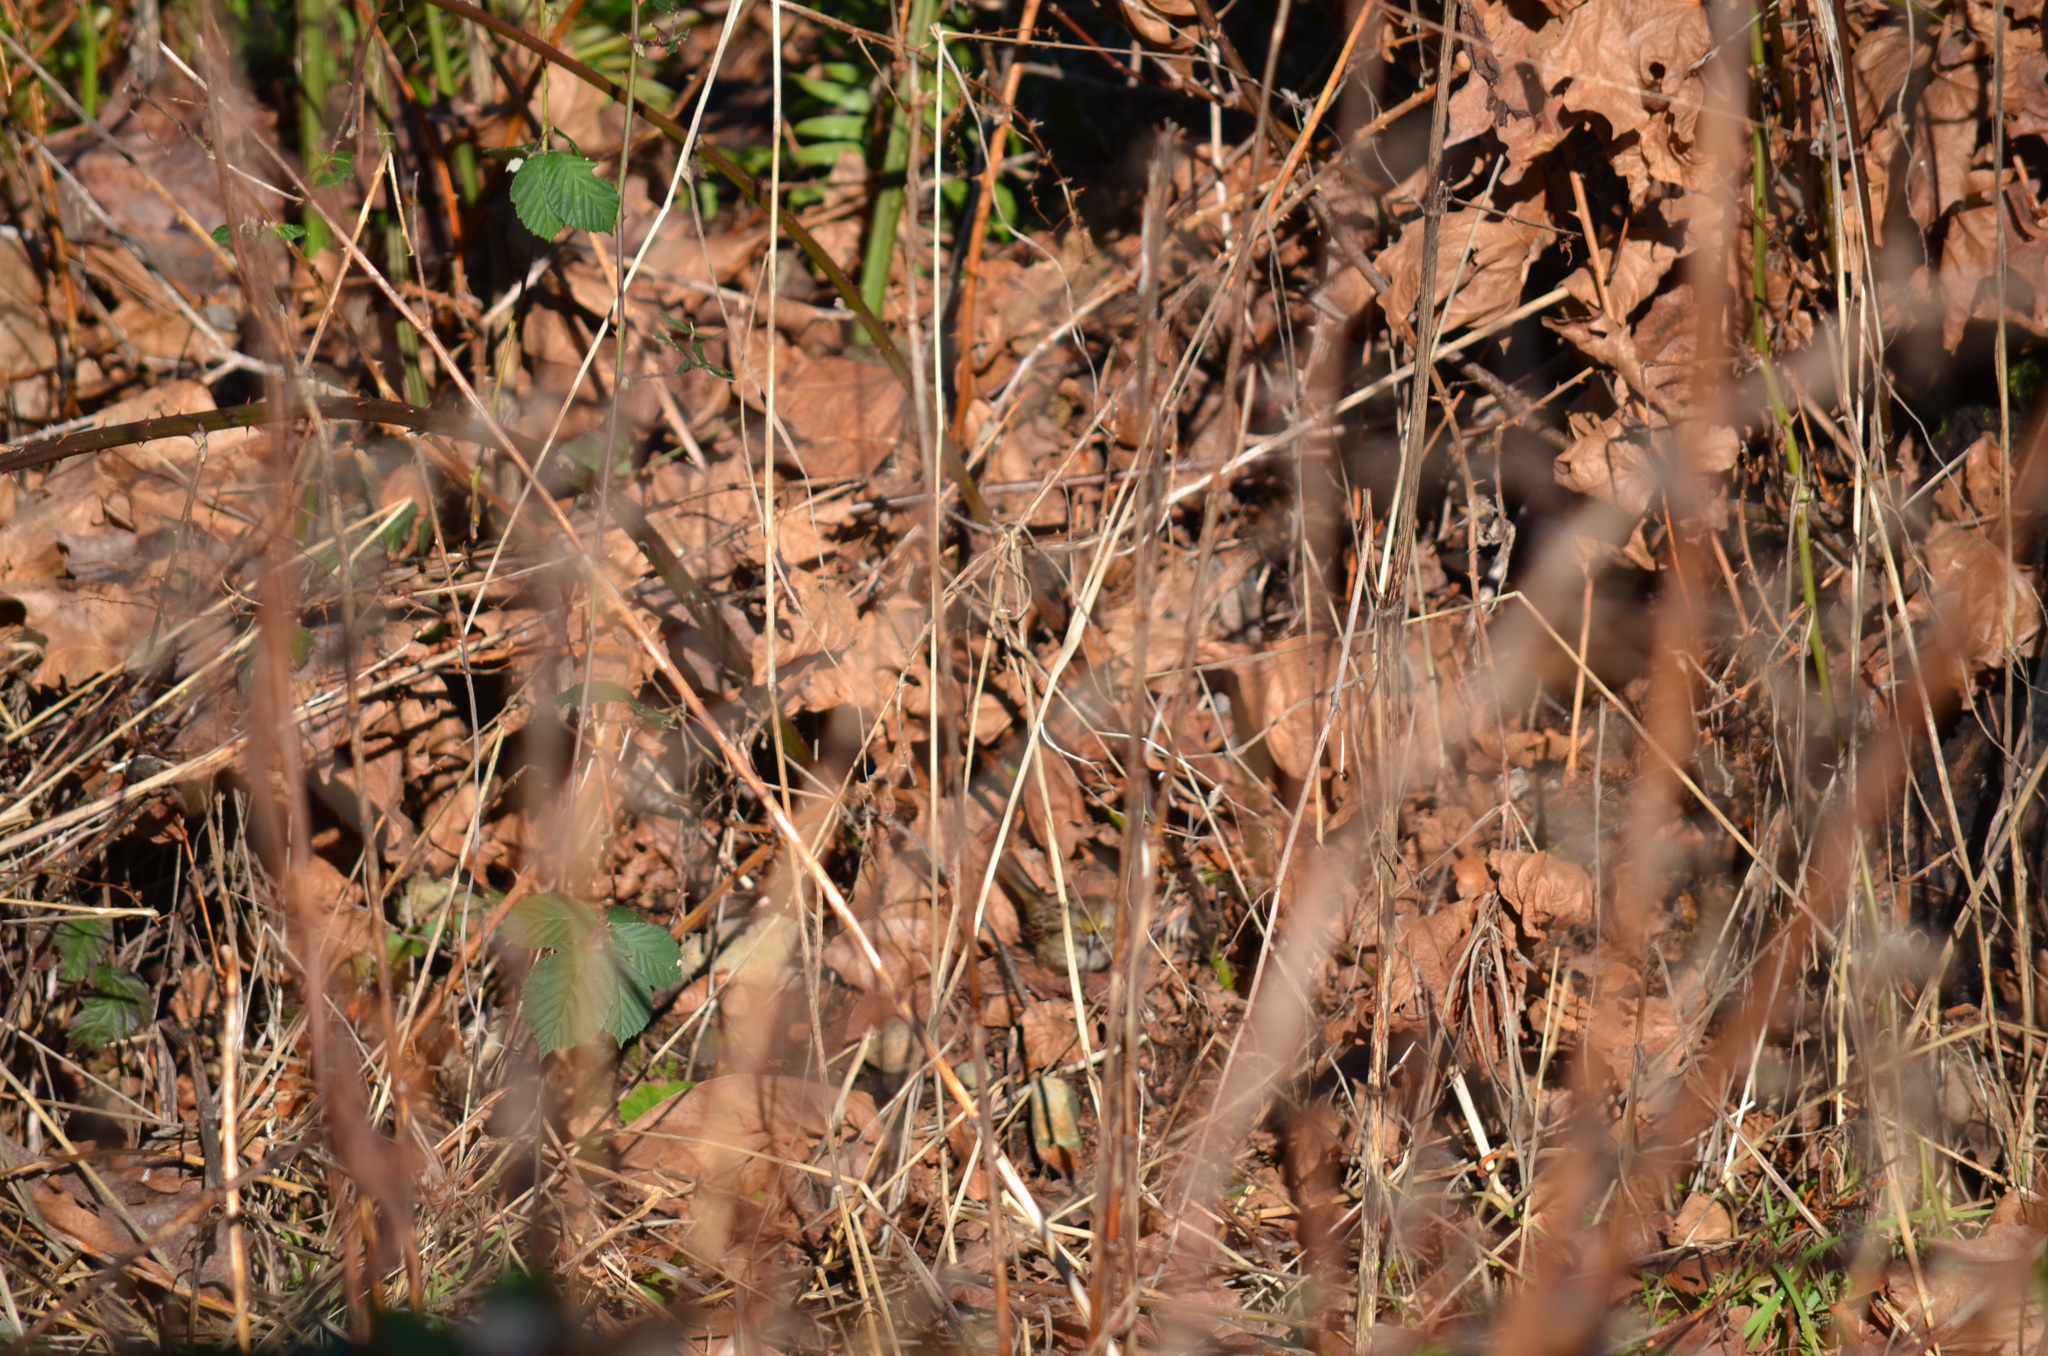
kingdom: Animalia
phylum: Chordata
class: Aves
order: Passeriformes
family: Passerellidae
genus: Zonotrichia
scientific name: Zonotrichia atricapilla
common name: Golden-crowned sparrow
